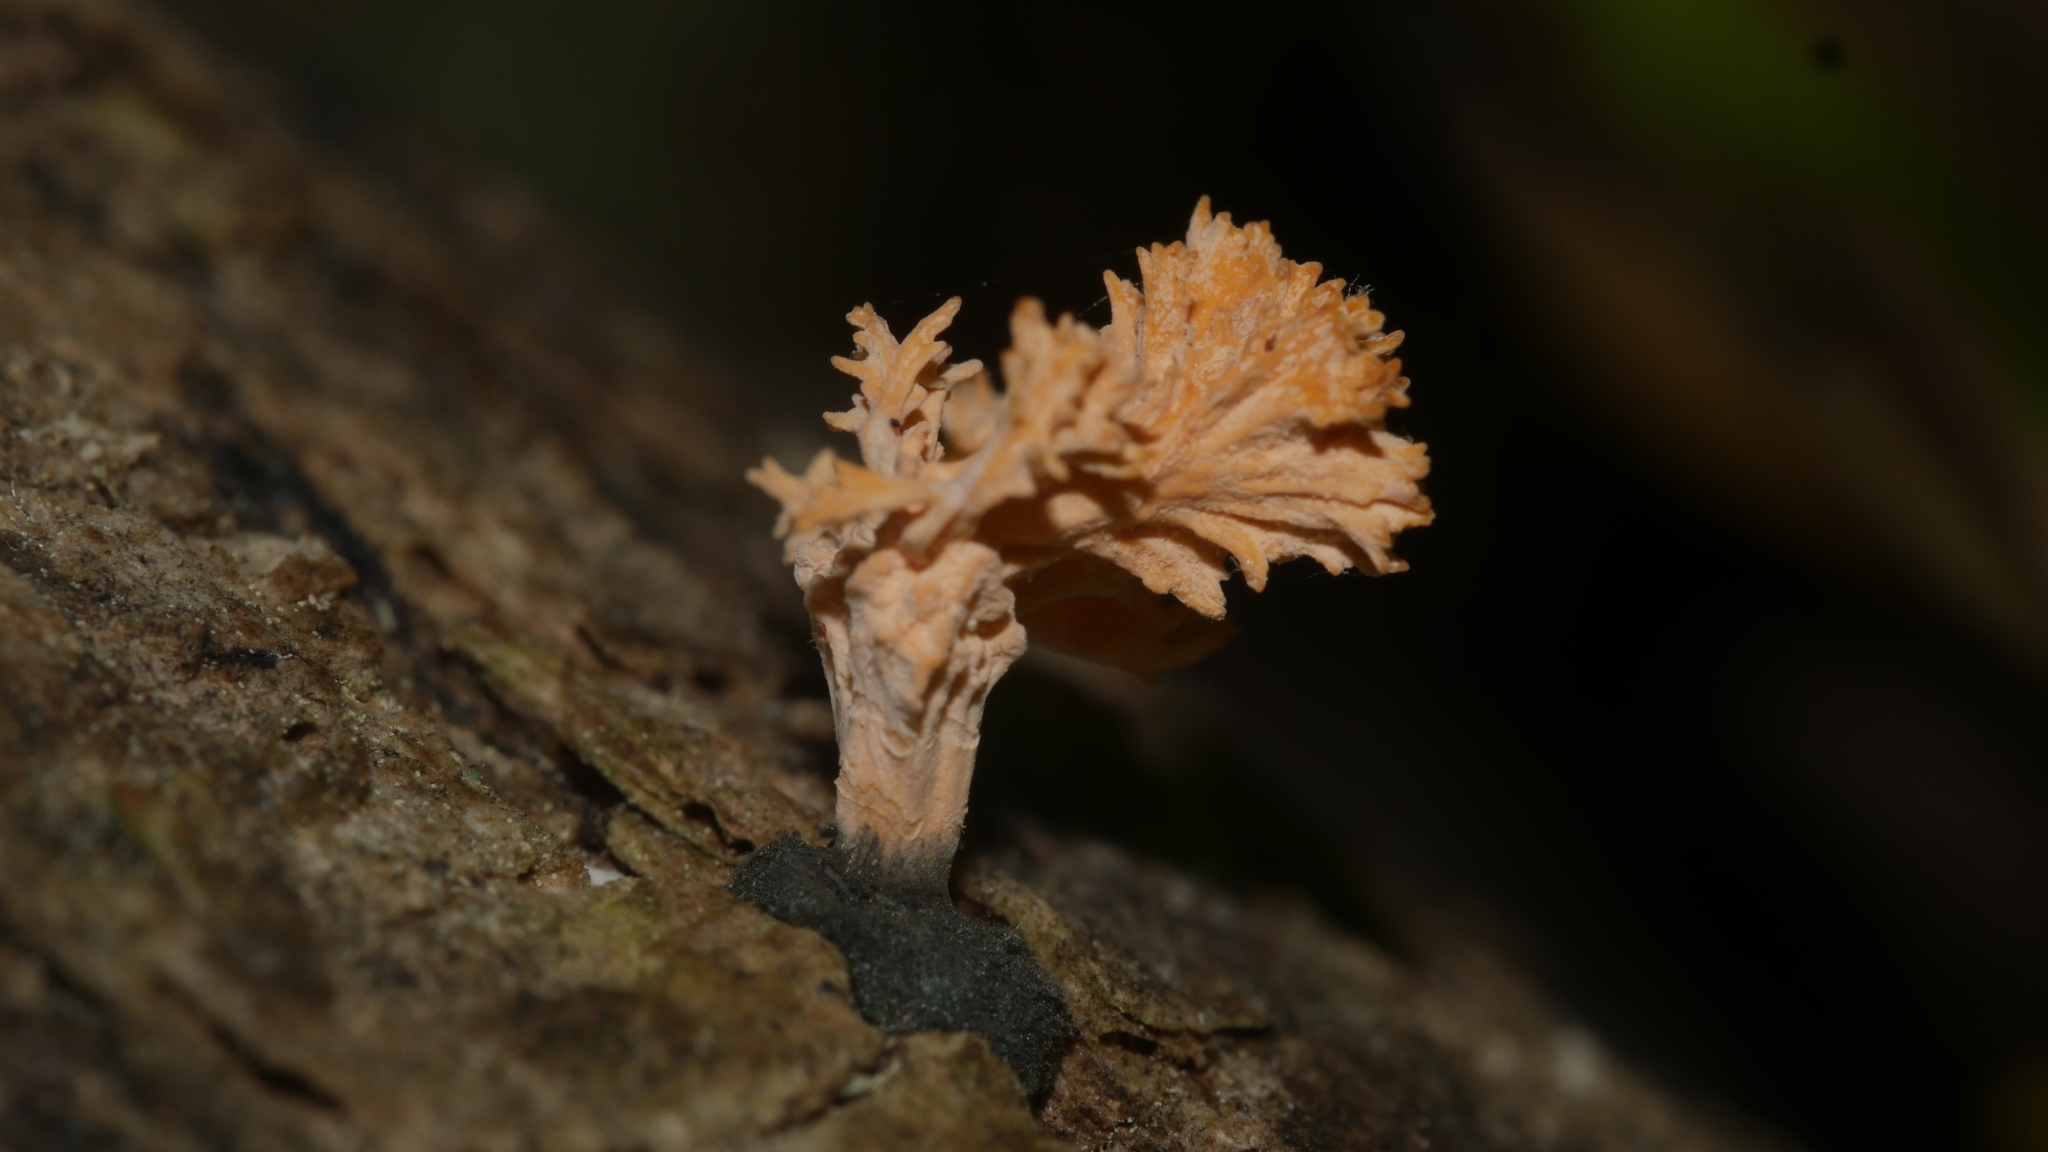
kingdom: Fungi
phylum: Ascomycota
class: Sordariomycetes
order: Xylariales
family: Xylariaceae
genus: Xylaria
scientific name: Xylaria cubensis
